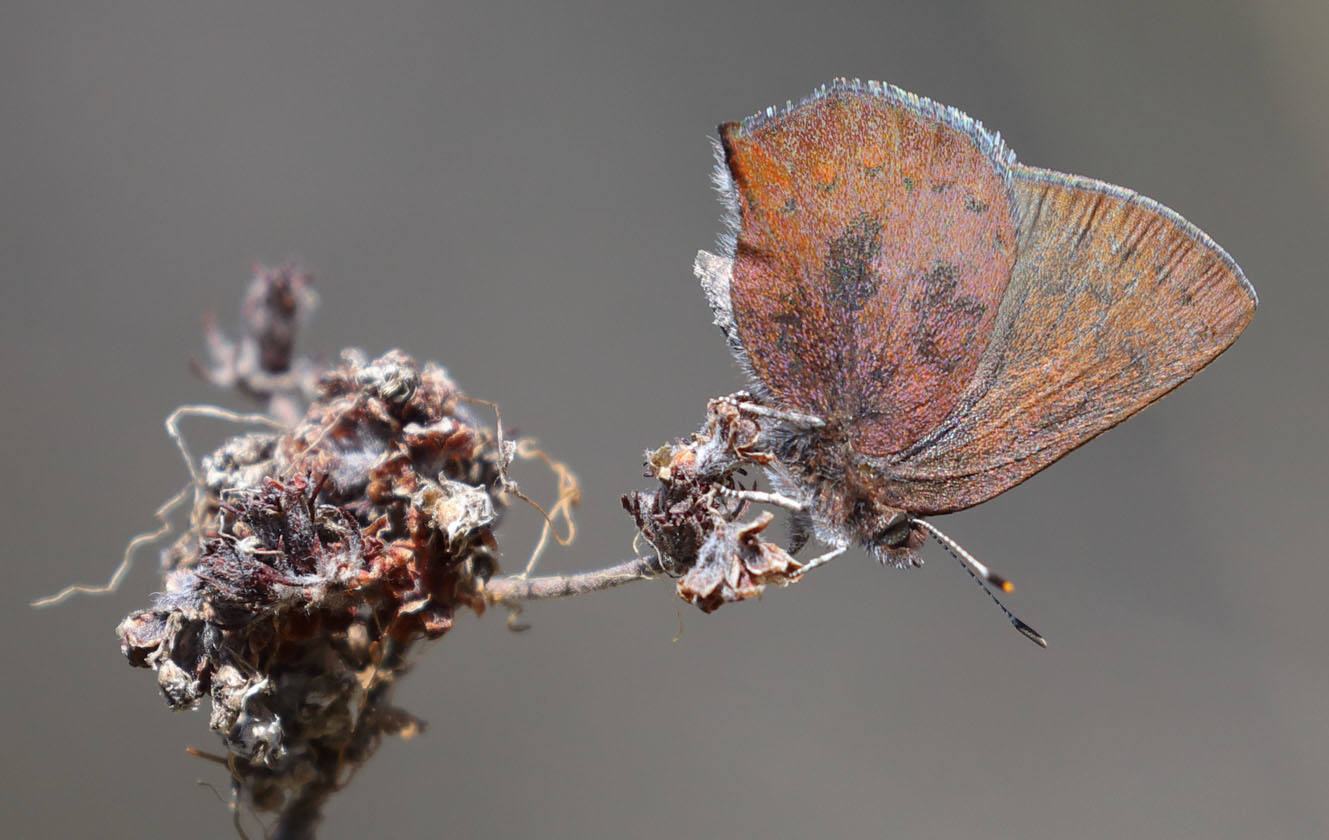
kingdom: Animalia
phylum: Arthropoda
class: Insecta
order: Lepidoptera
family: Lycaenidae
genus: Incisalia
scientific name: Incisalia irioides
